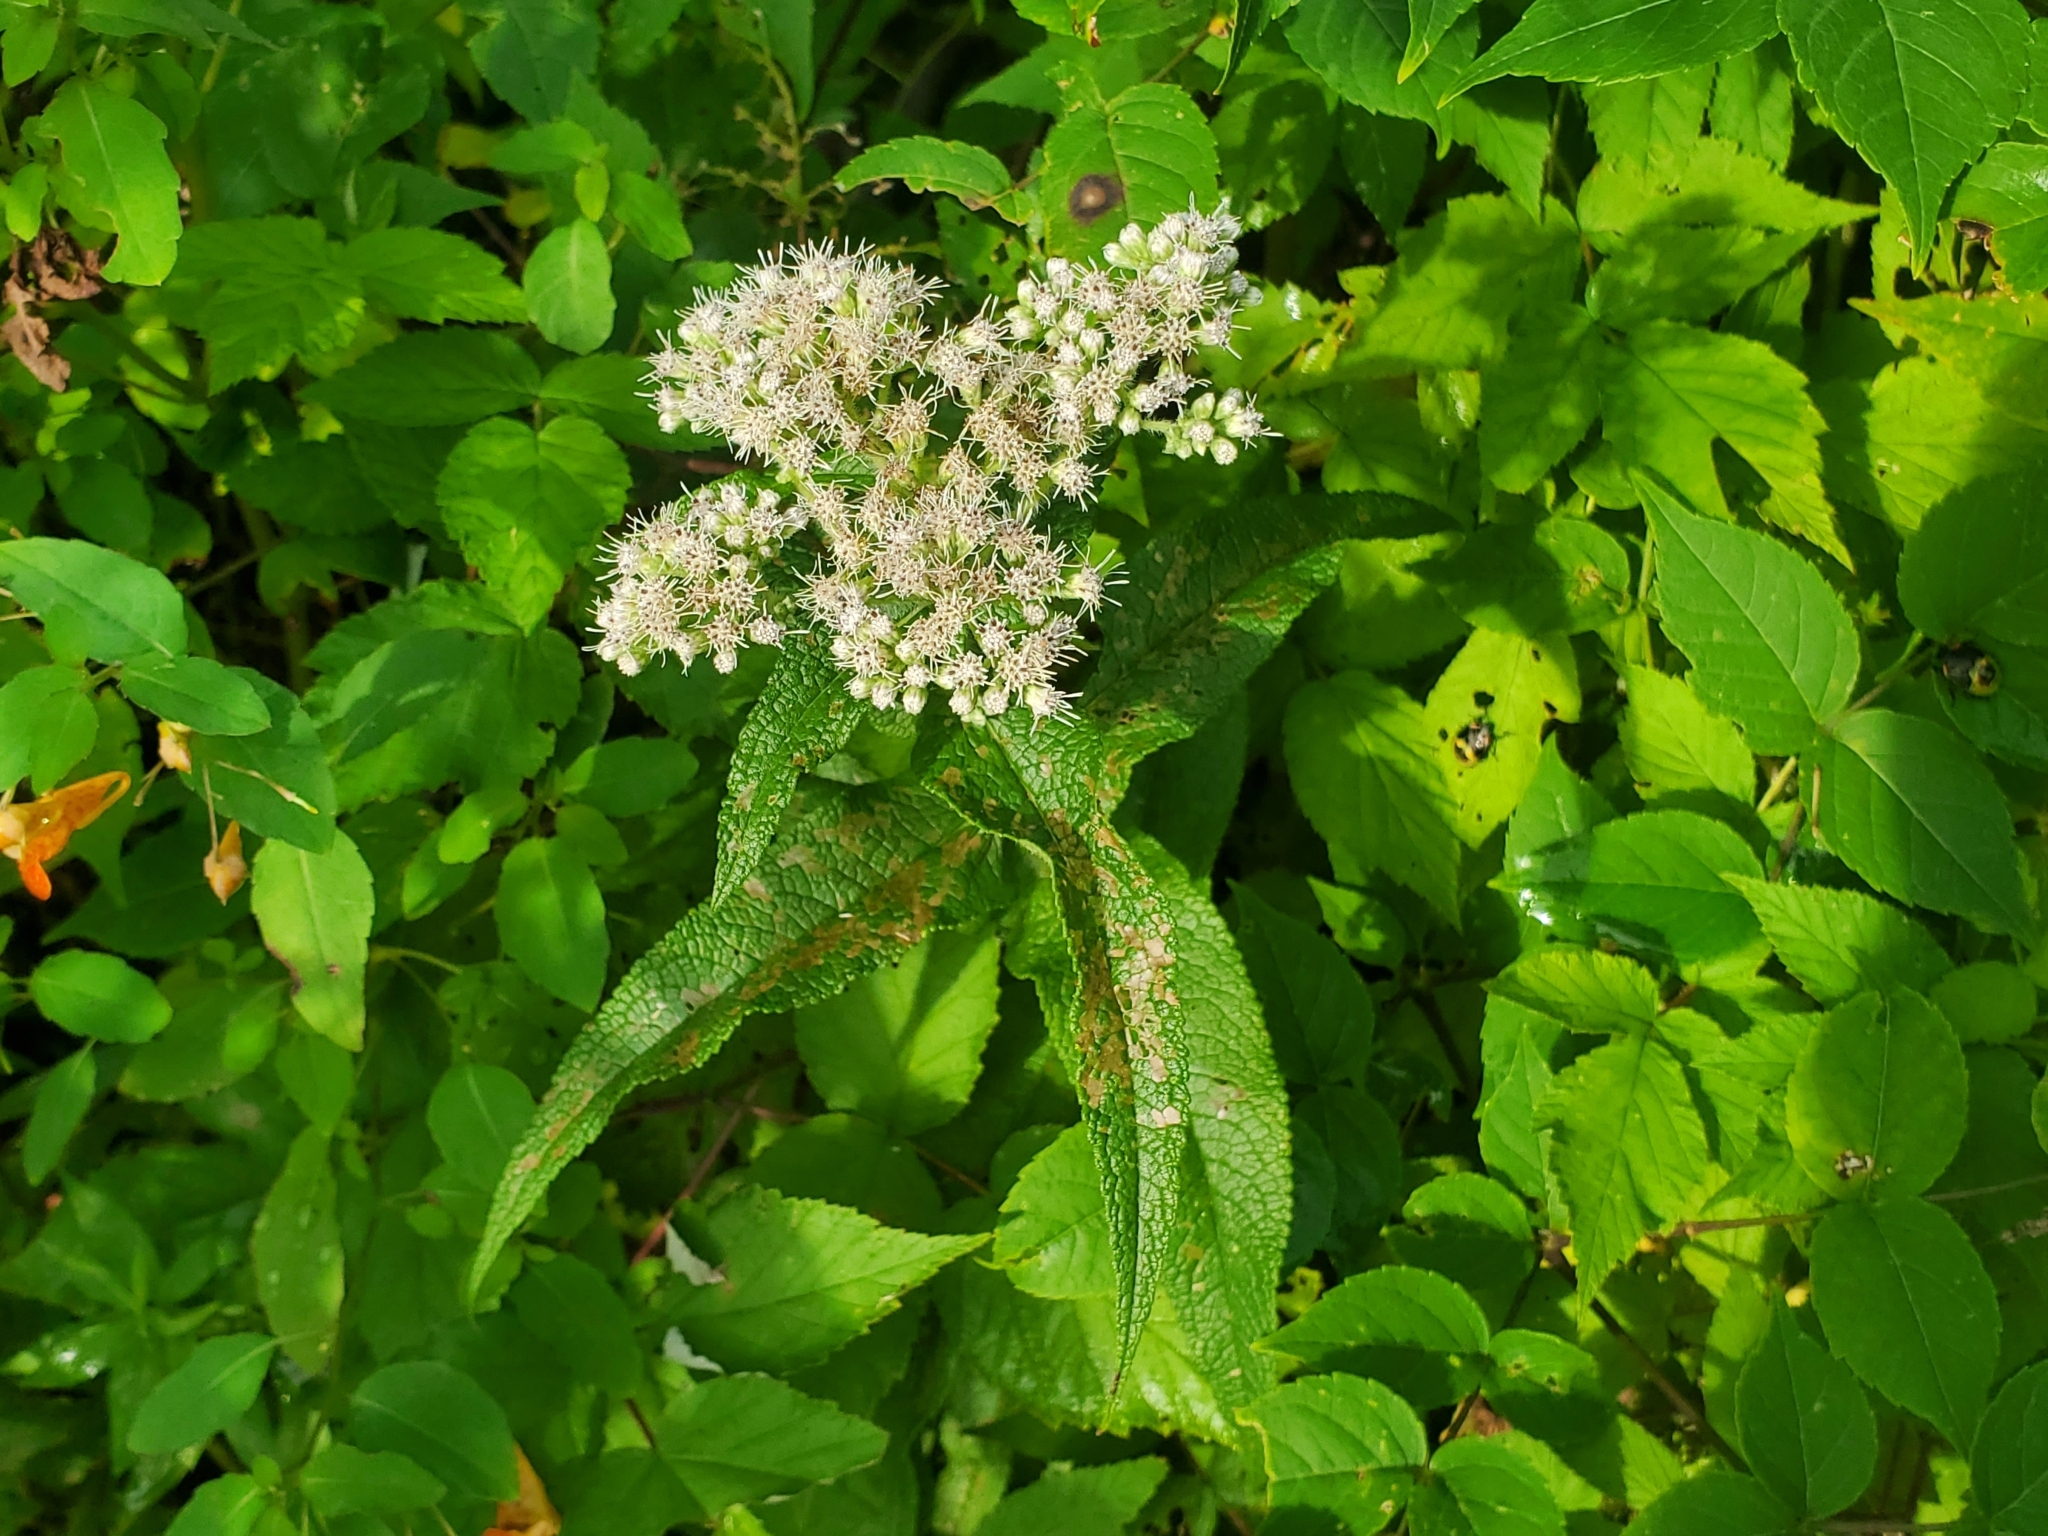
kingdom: Plantae
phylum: Tracheophyta
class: Magnoliopsida
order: Asterales
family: Asteraceae
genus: Eupatorium
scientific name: Eupatorium perfoliatum
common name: Boneset
